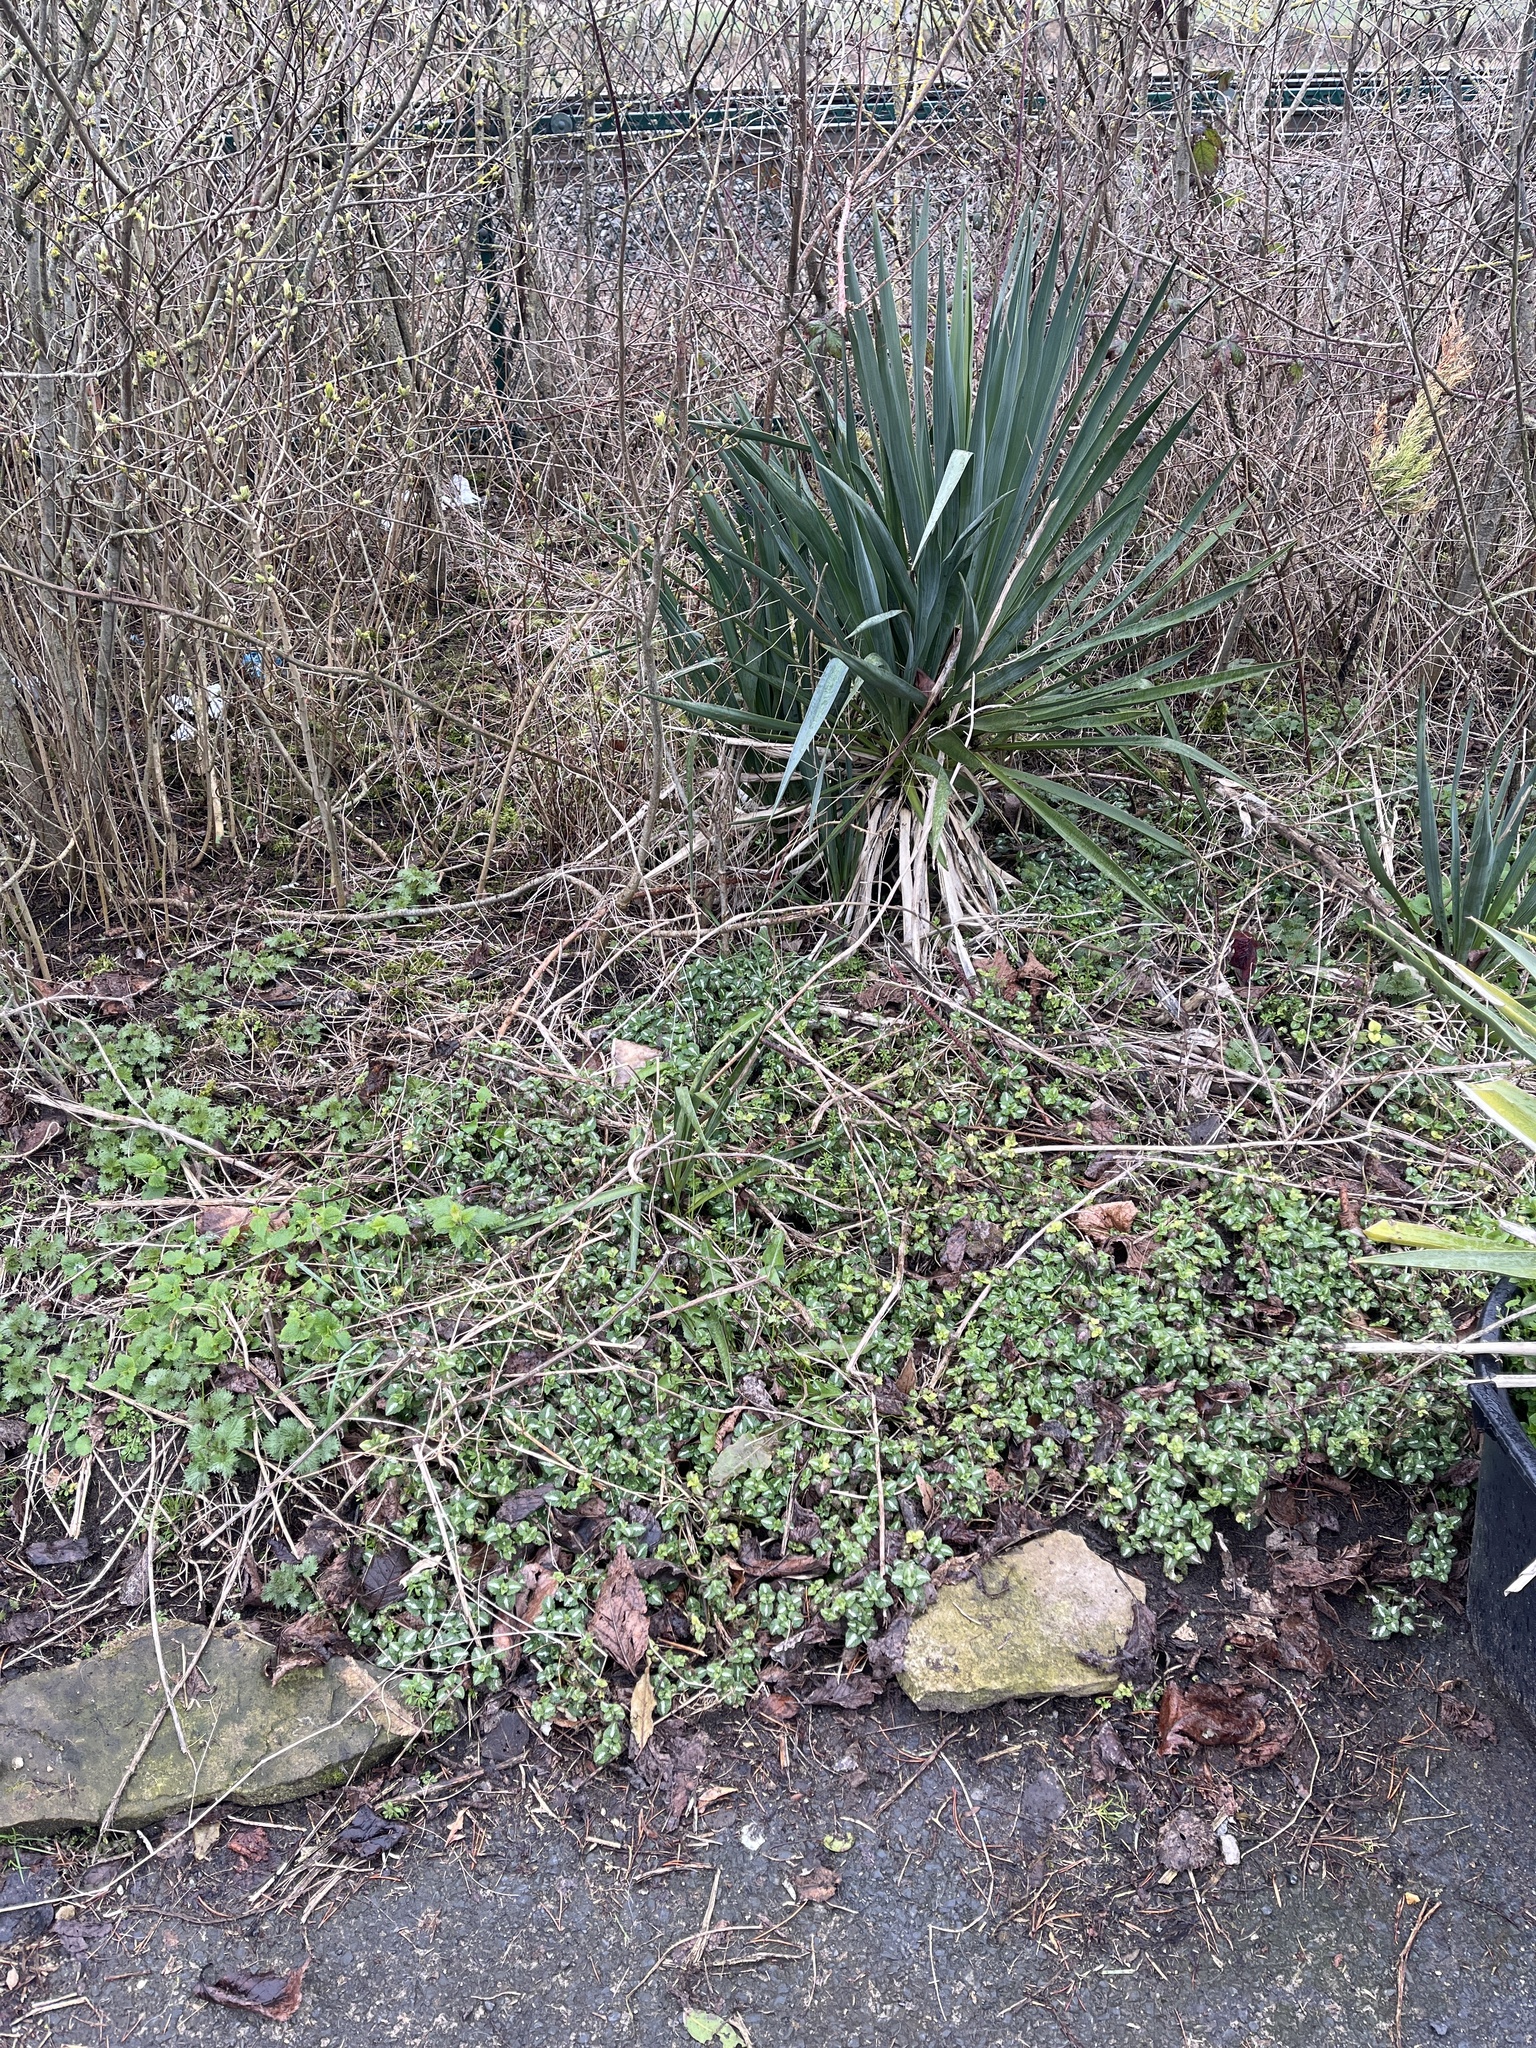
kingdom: Plantae
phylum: Tracheophyta
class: Magnoliopsida
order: Lamiales
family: Lamiaceae
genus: Lamium
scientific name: Lamium maculatum
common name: Spotted dead-nettle
